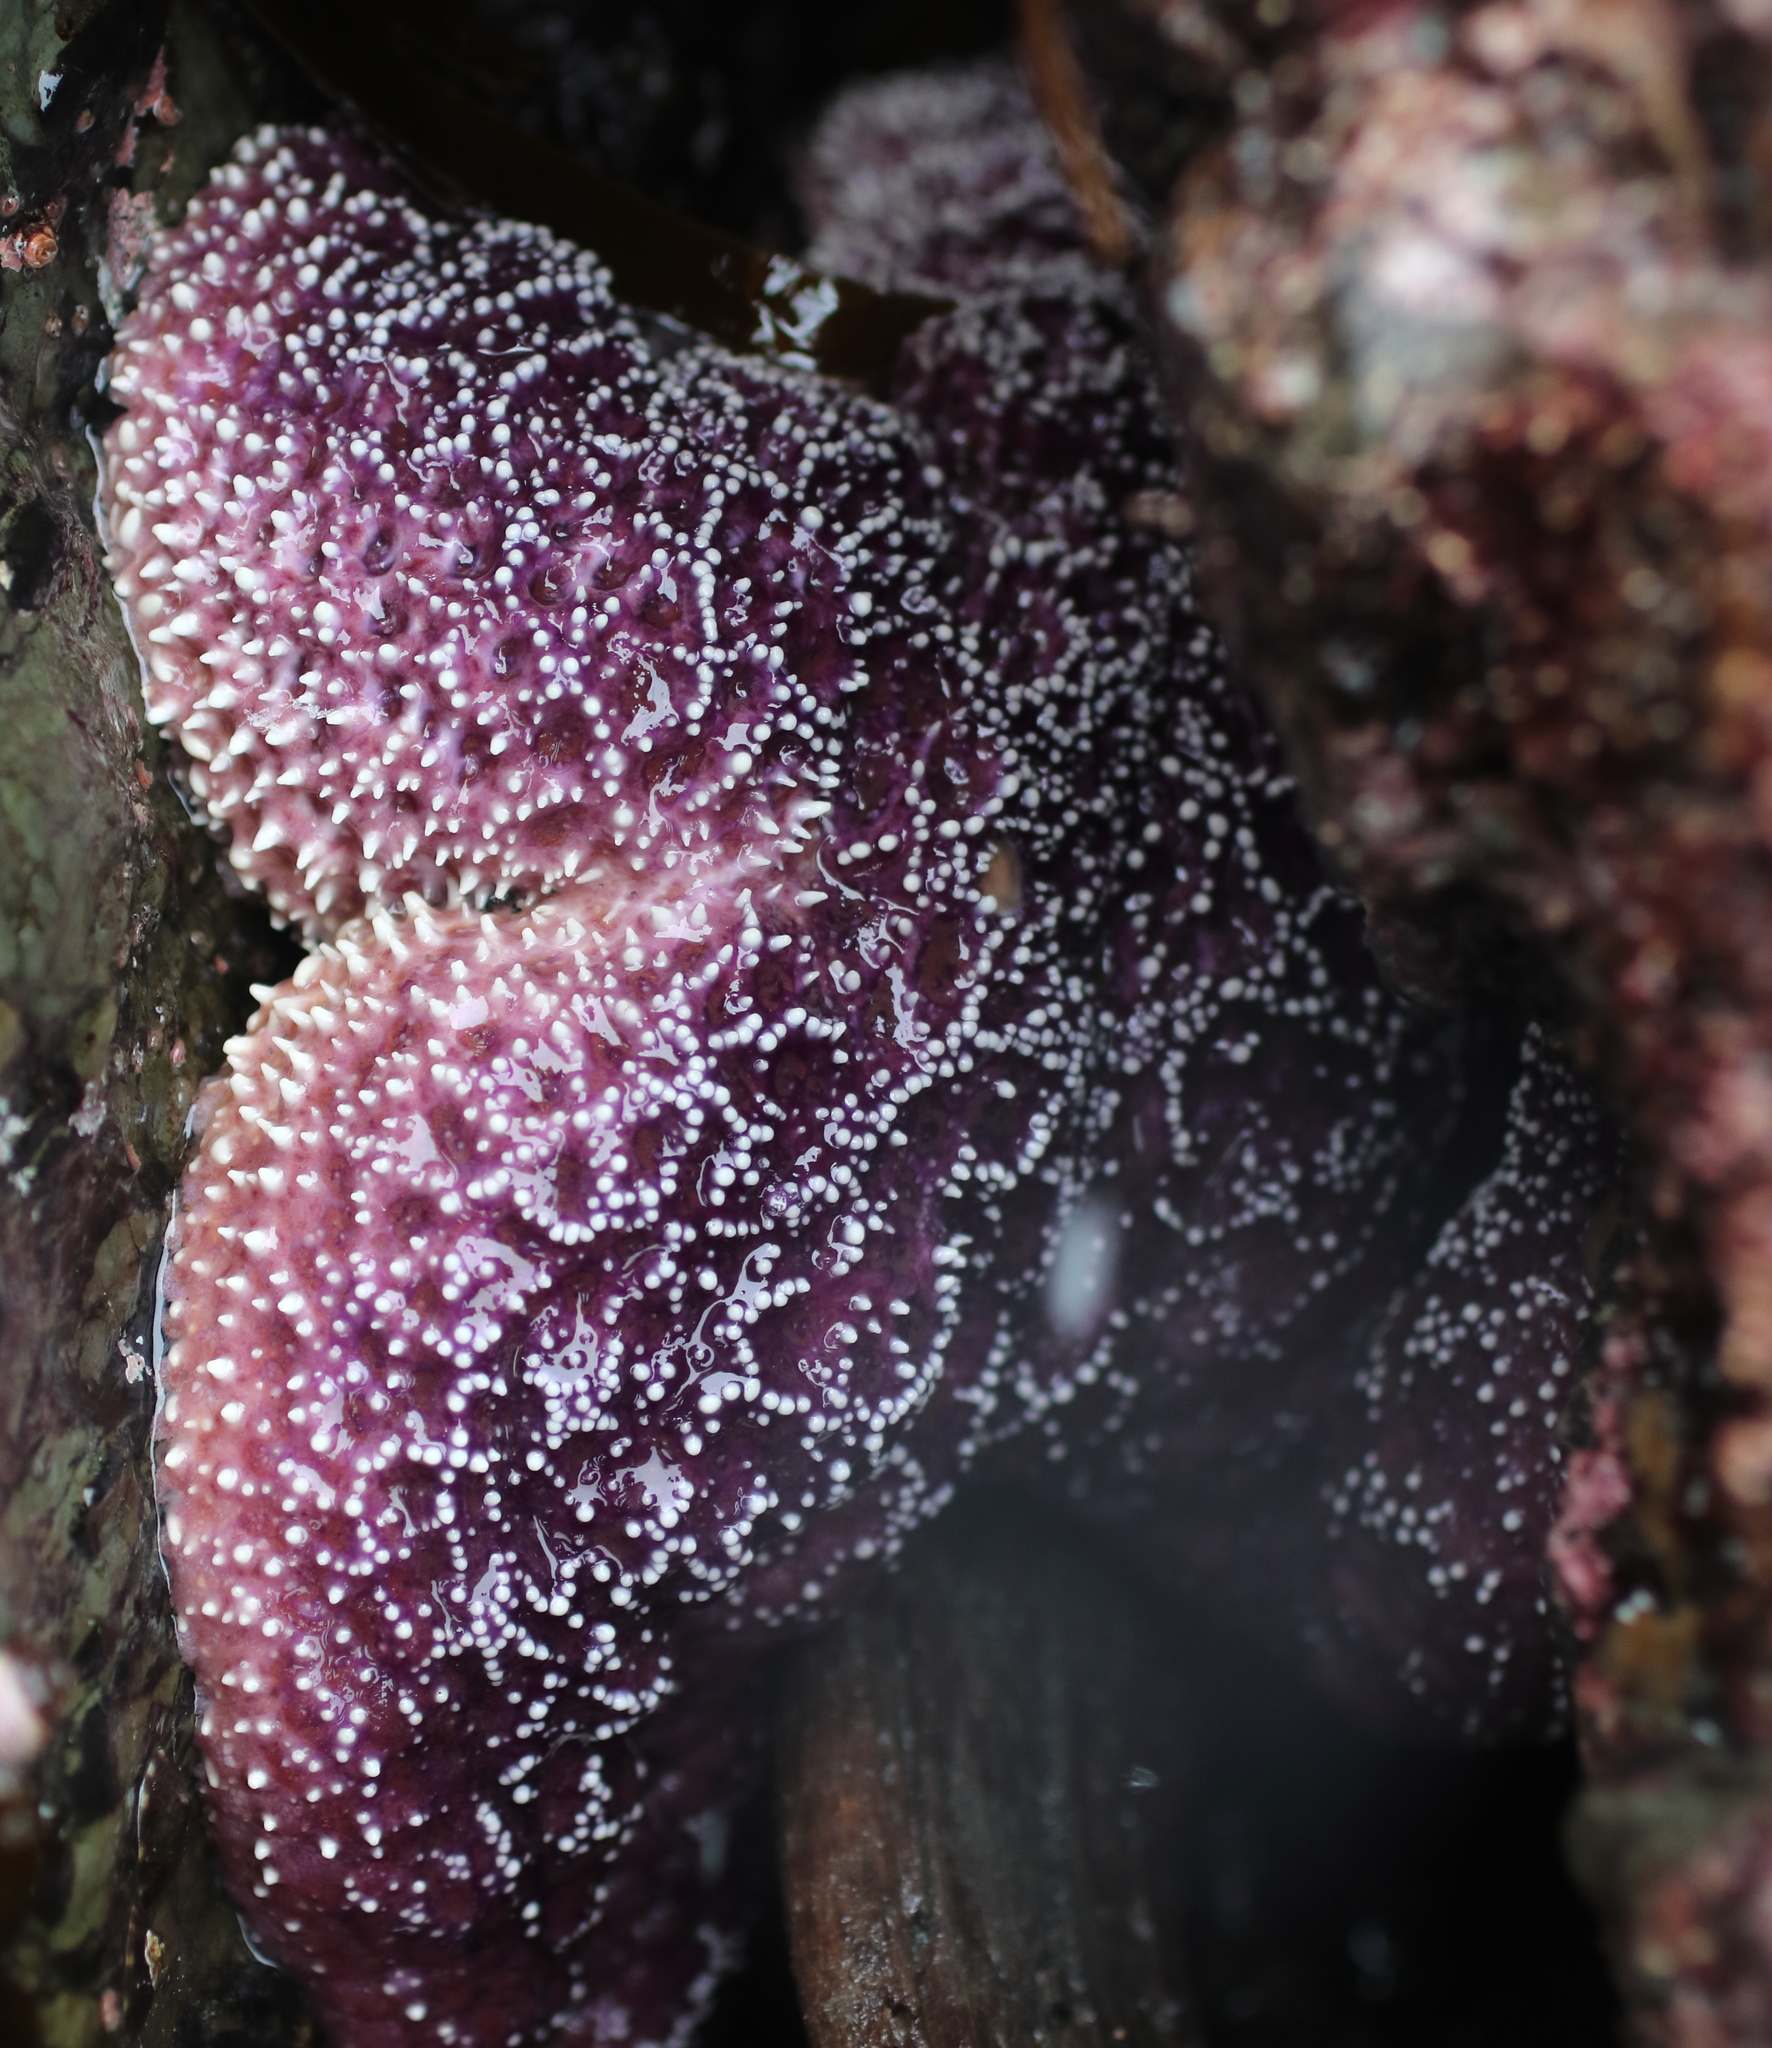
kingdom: Animalia
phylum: Echinodermata
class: Asteroidea
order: Forcipulatida
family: Asteriidae
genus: Pisaster
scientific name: Pisaster ochraceus
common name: Ochre stars
